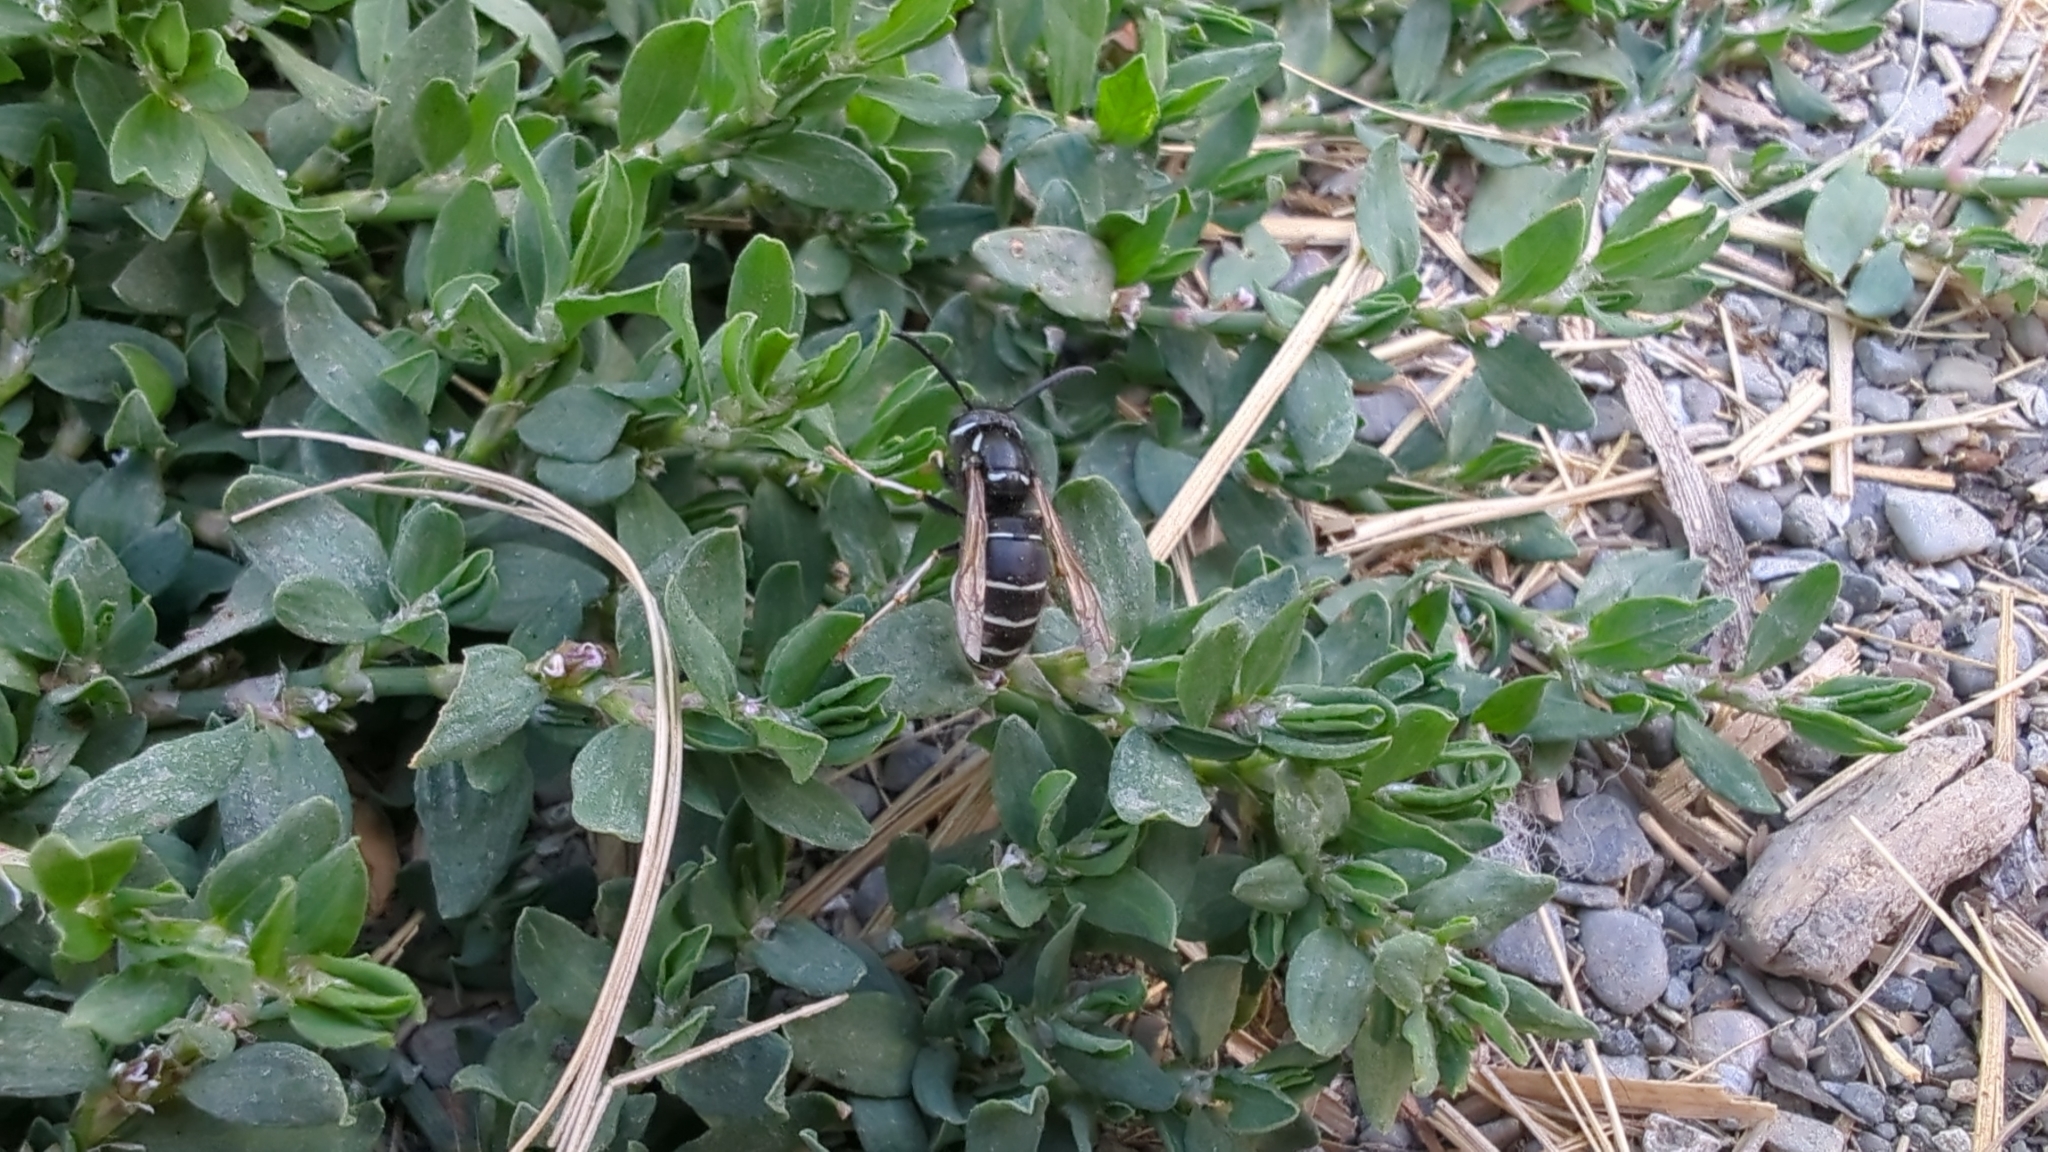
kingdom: Animalia
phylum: Arthropoda
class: Insecta
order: Hymenoptera
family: Vespidae
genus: Vespula
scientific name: Vespula consobrina
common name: Blackjacket
